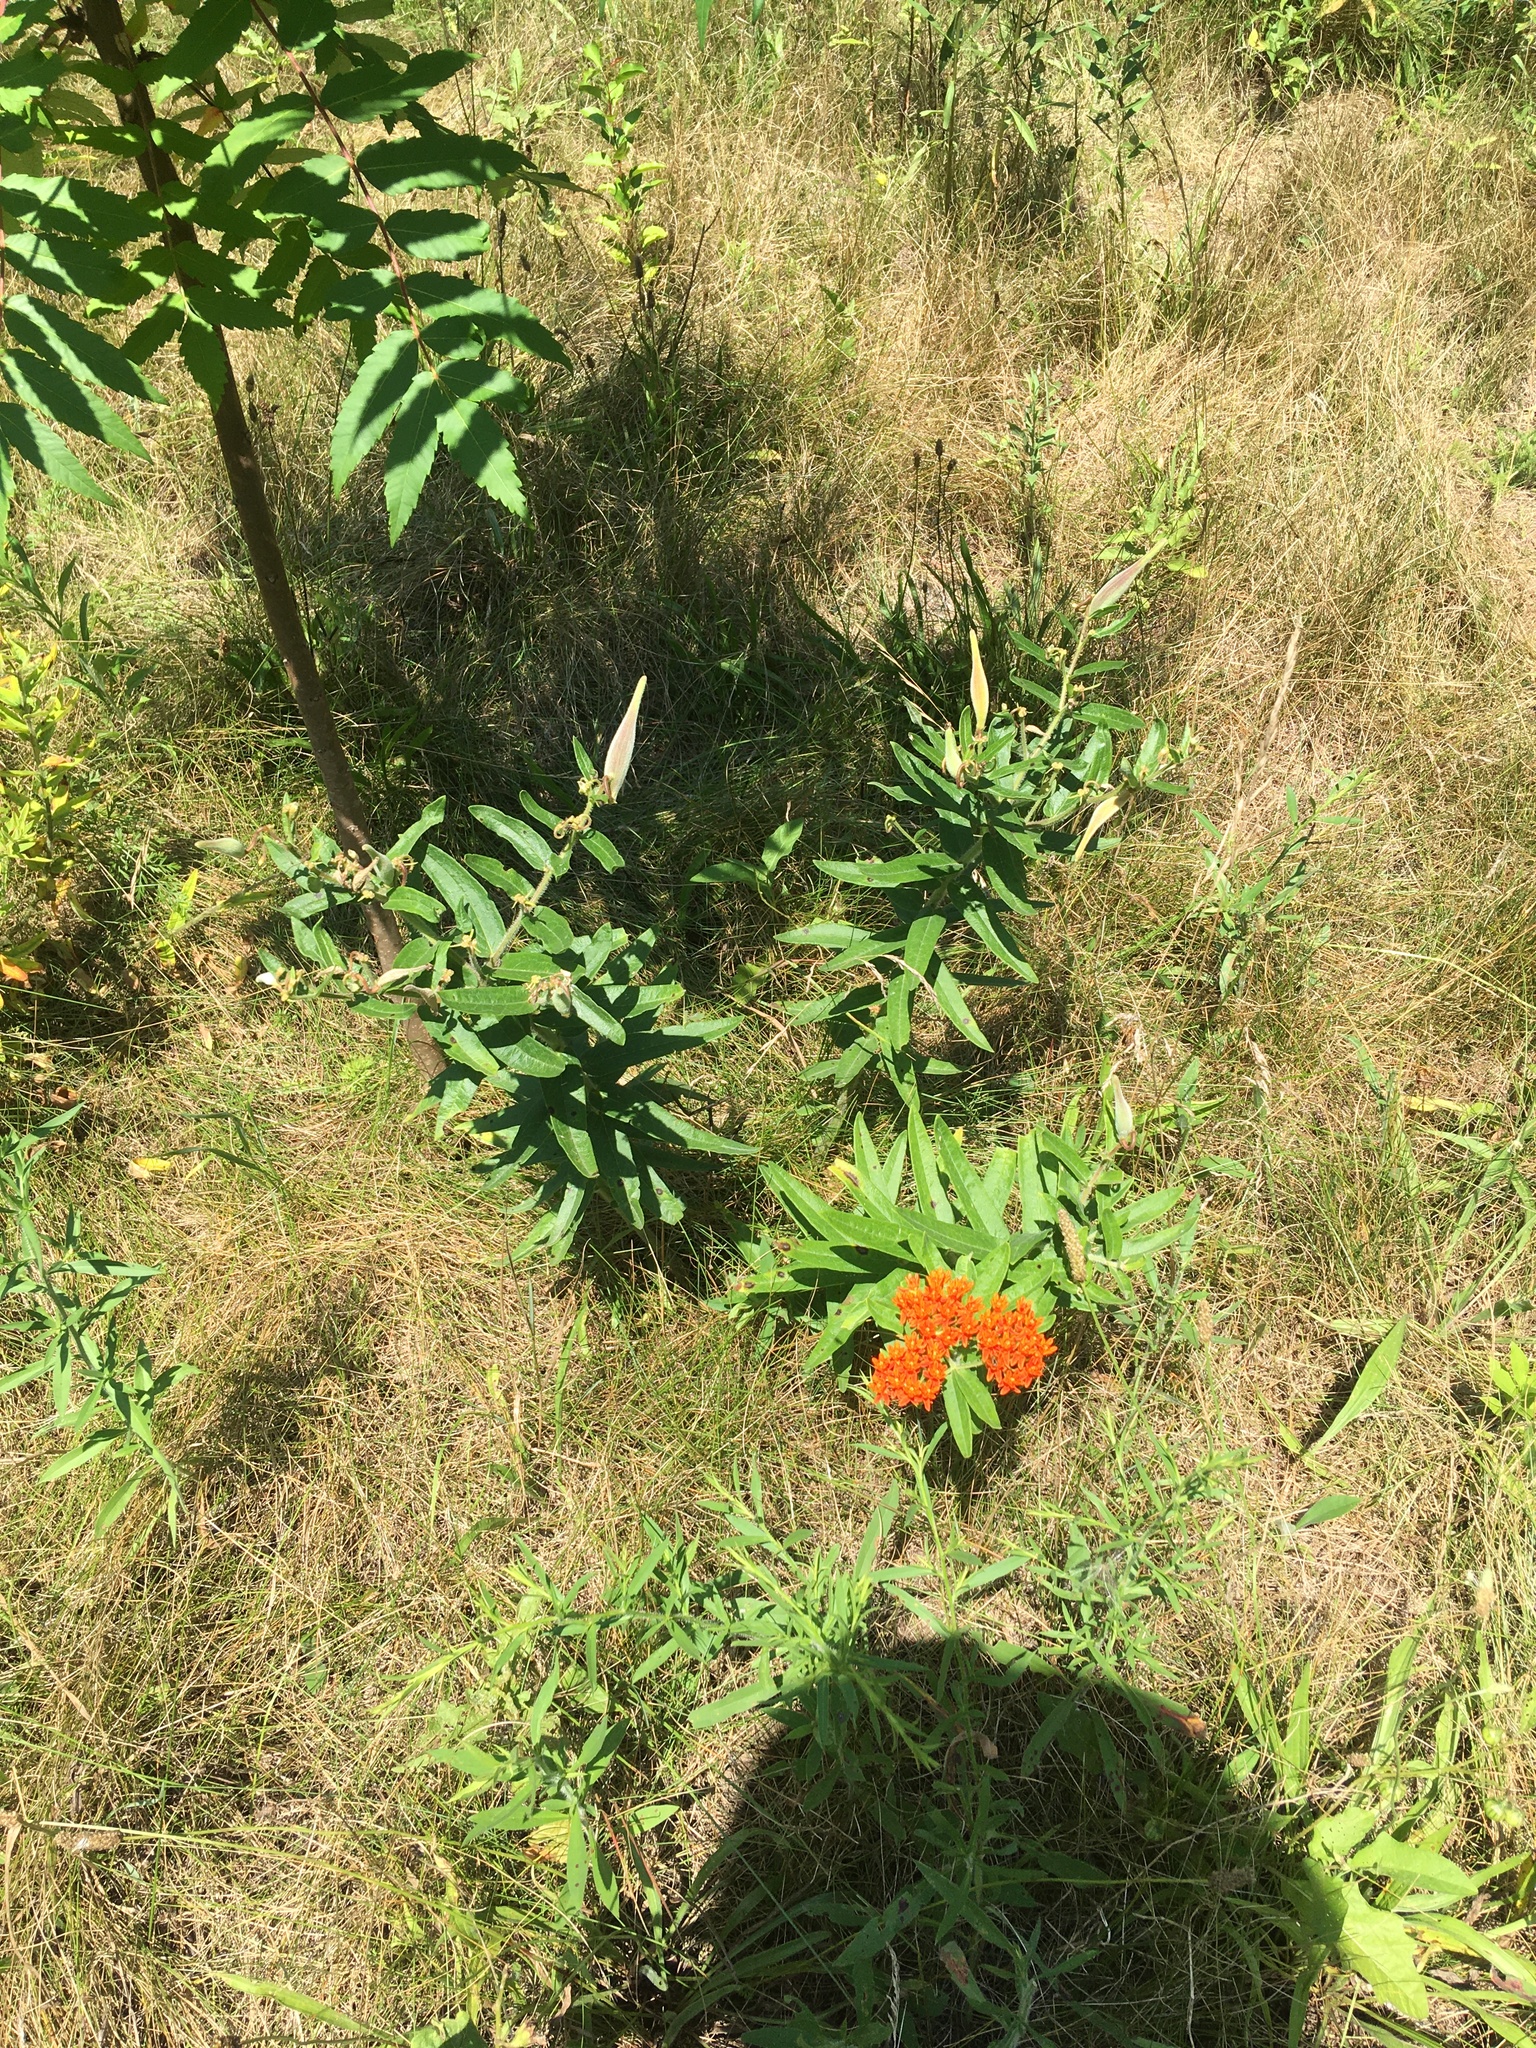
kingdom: Plantae
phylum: Tracheophyta
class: Magnoliopsida
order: Gentianales
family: Apocynaceae
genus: Asclepias
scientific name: Asclepias tuberosa
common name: Butterfly milkweed
